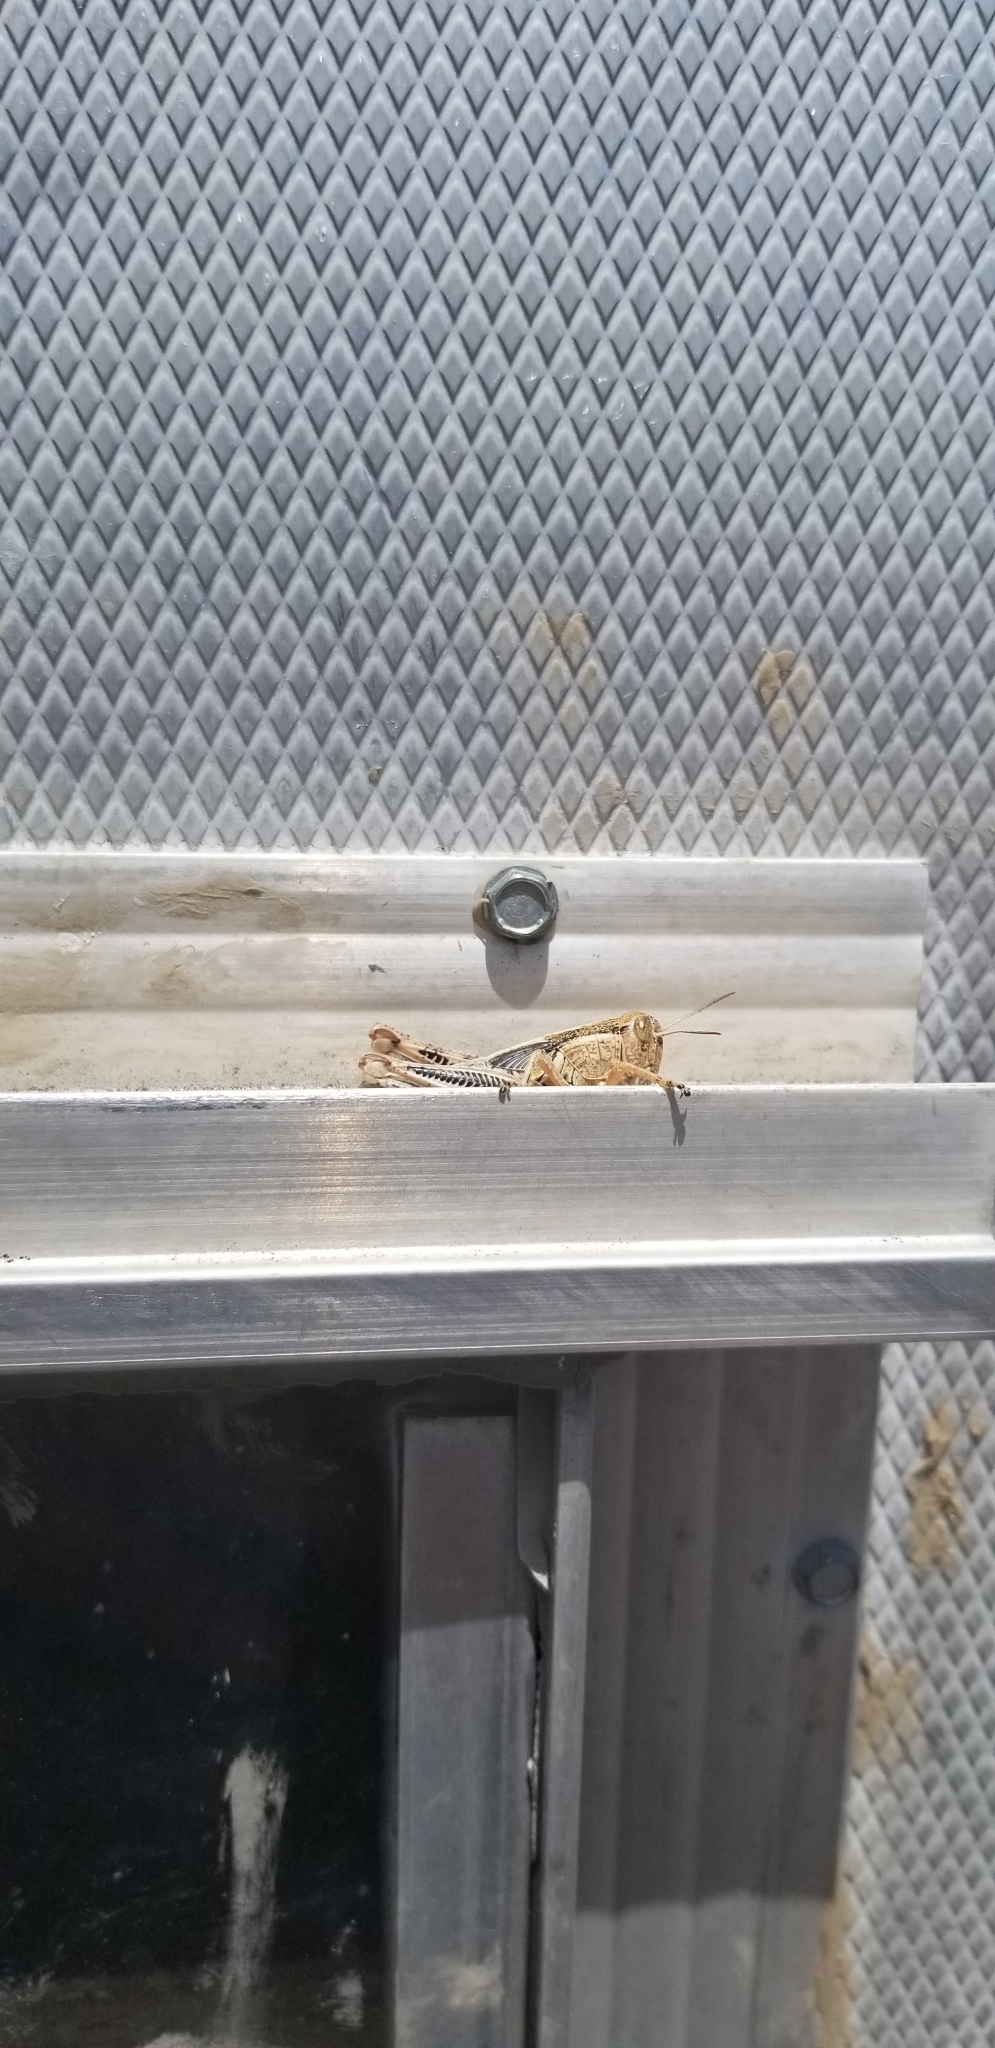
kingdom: Animalia
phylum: Arthropoda
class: Insecta
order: Orthoptera
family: Acrididae
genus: Melanoplus
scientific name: Melanoplus differentialis
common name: Differential grasshopper
